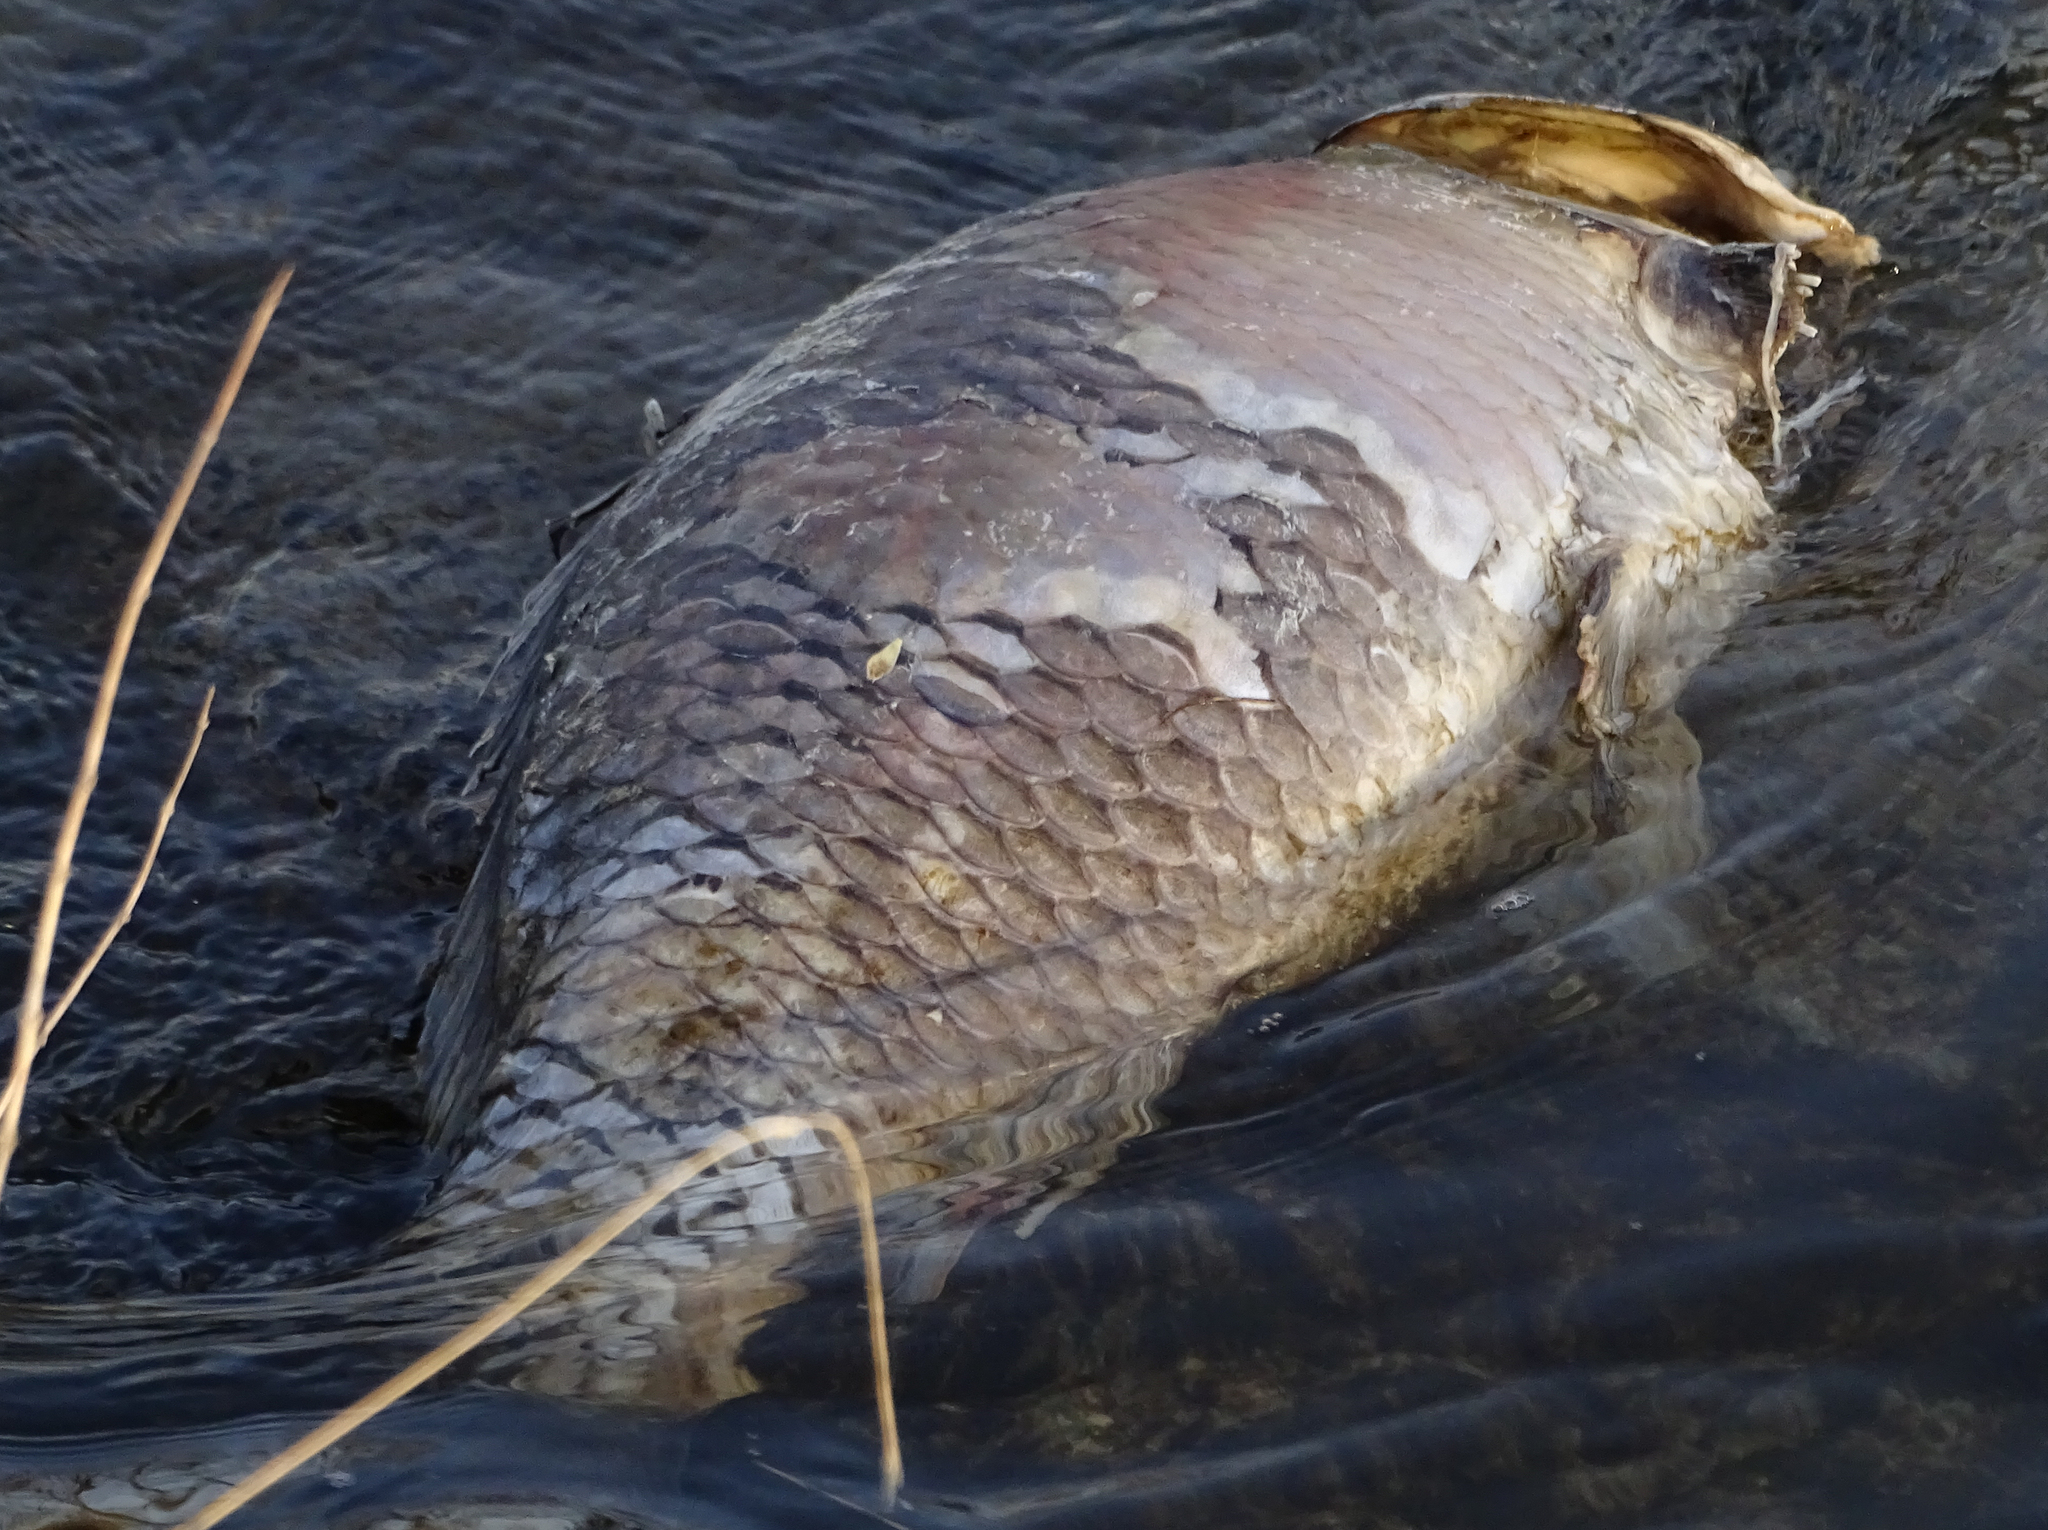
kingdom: Animalia
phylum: Chordata
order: Cypriniformes
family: Cyprinidae
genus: Cyprinus
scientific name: Cyprinus carpio
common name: Common carp
